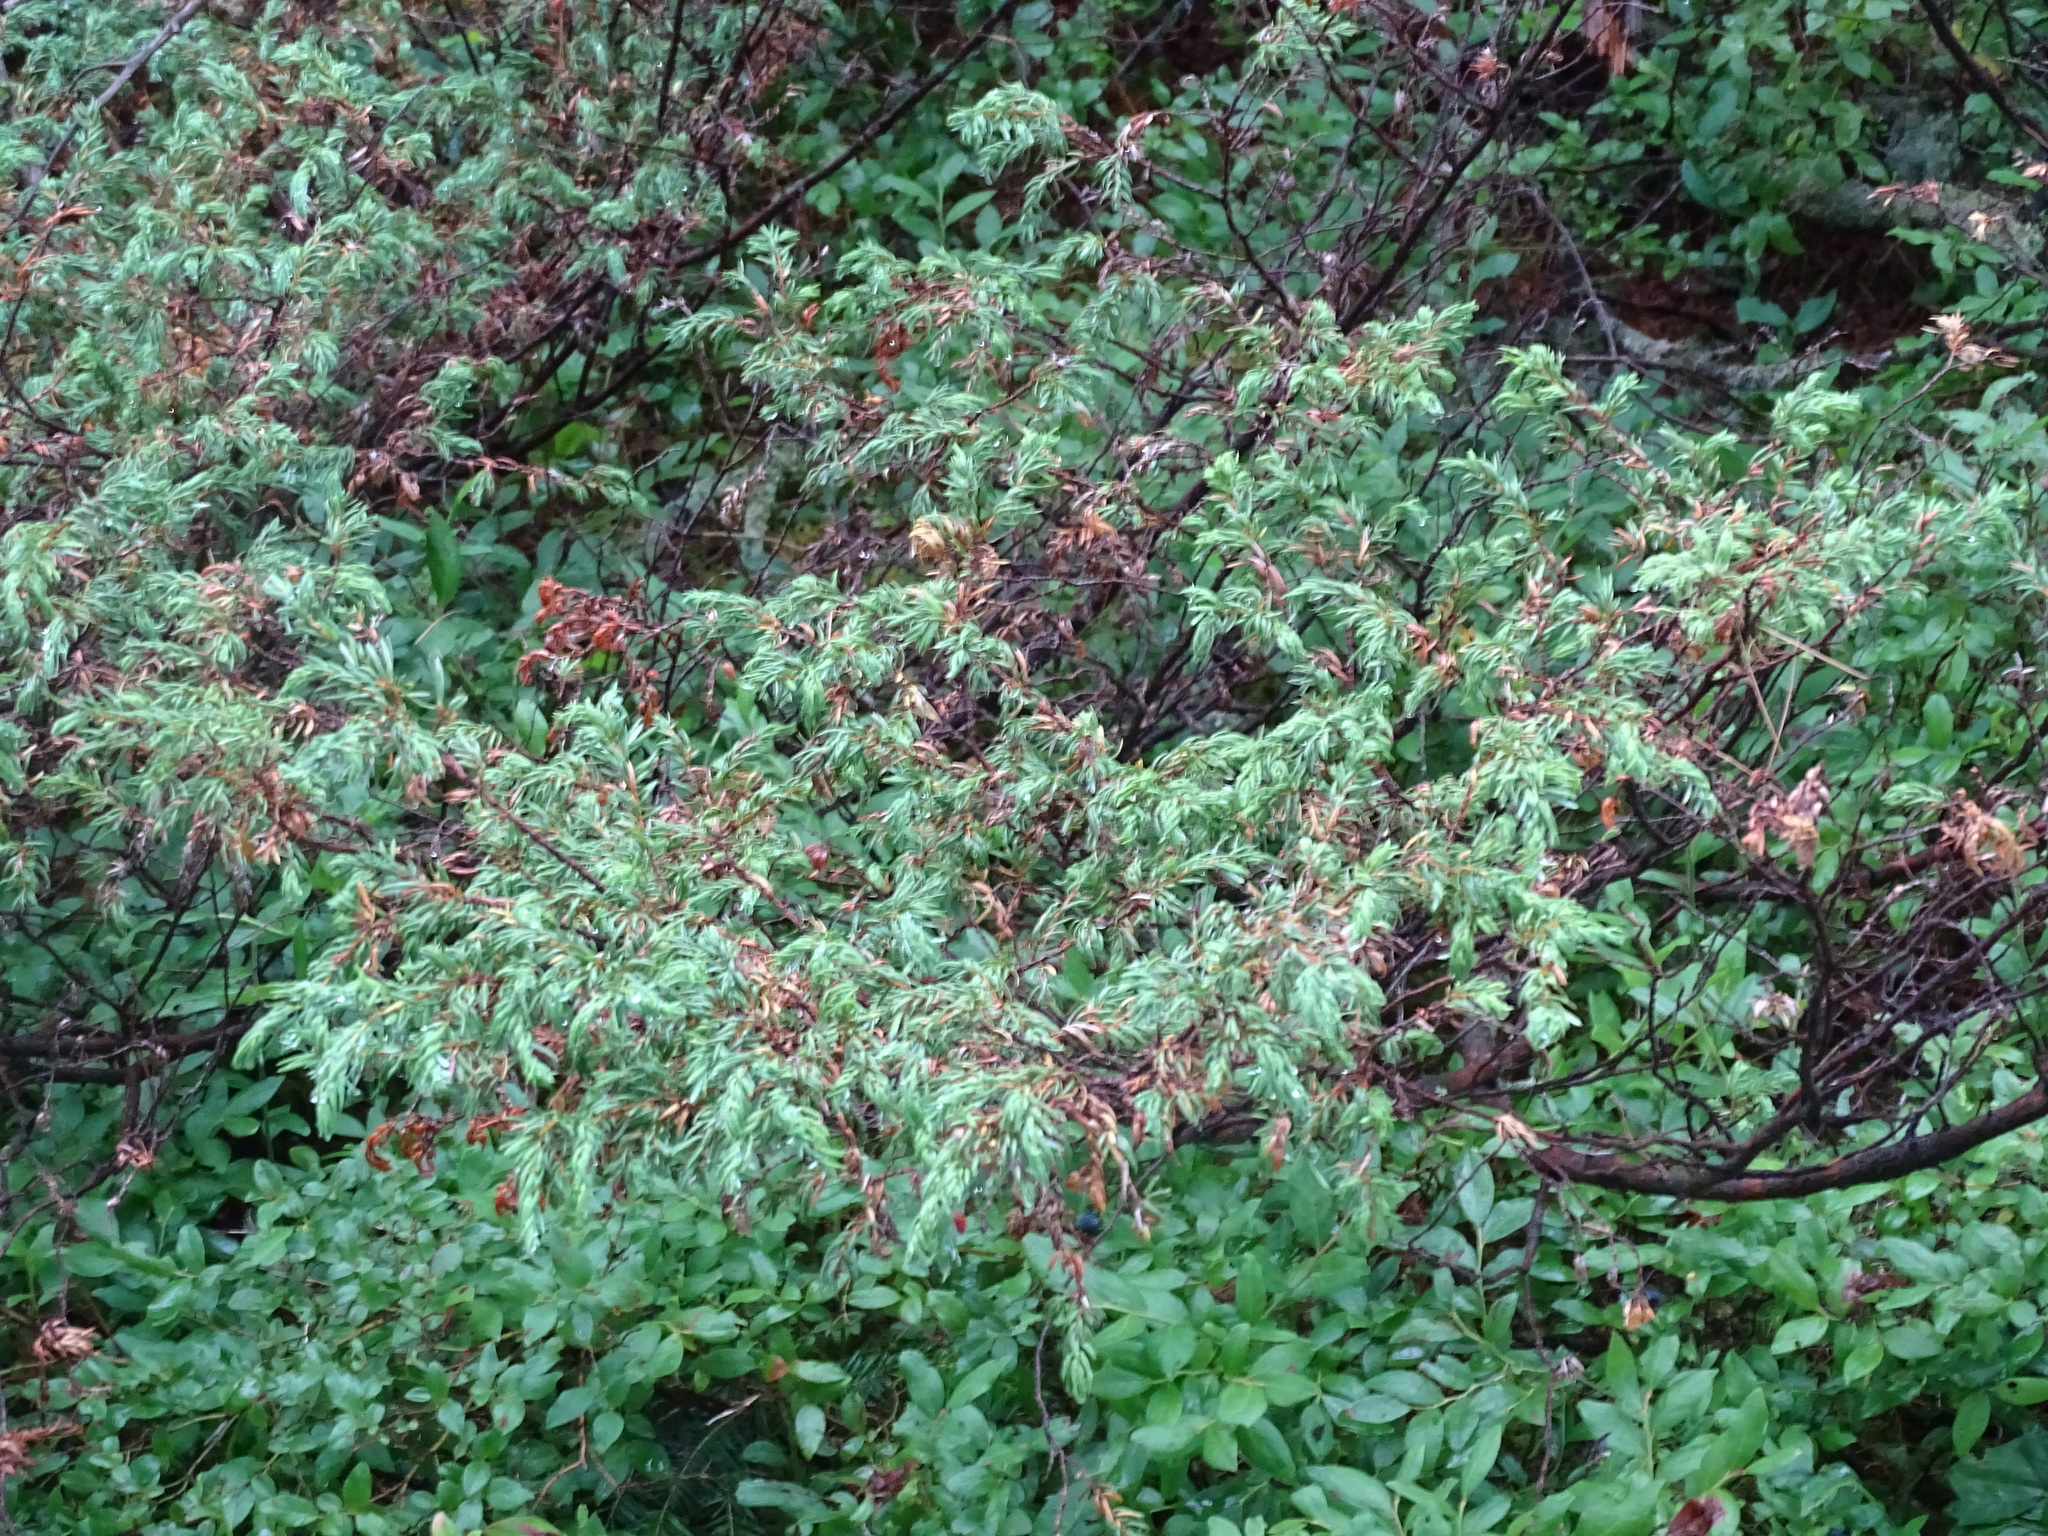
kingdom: Plantae
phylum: Tracheophyta
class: Pinopsida
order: Pinales
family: Cupressaceae
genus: Juniperus
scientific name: Juniperus communis
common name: Common juniper
